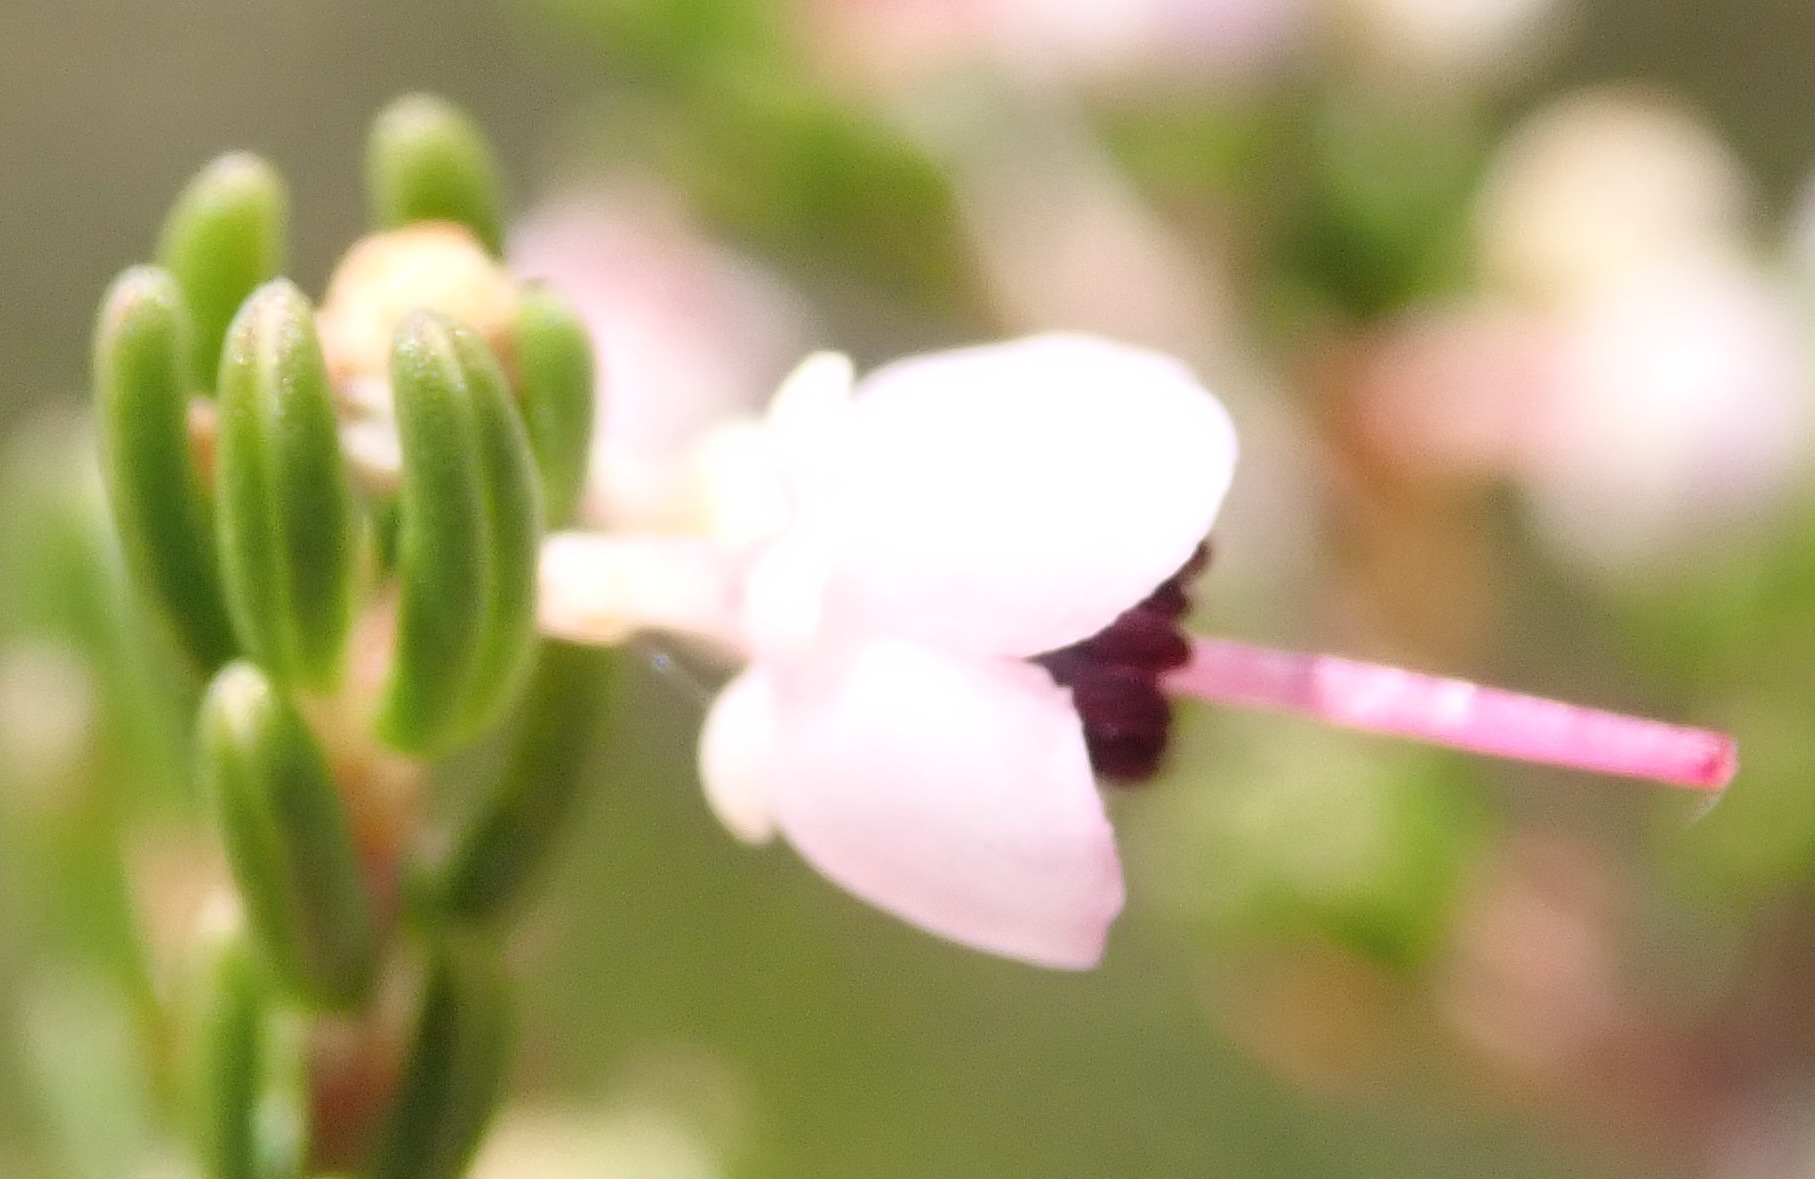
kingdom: Plantae
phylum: Tracheophyta
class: Magnoliopsida
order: Ericales
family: Ericaceae
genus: Erica
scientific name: Erica canaliculata
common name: Hairy grey heather
